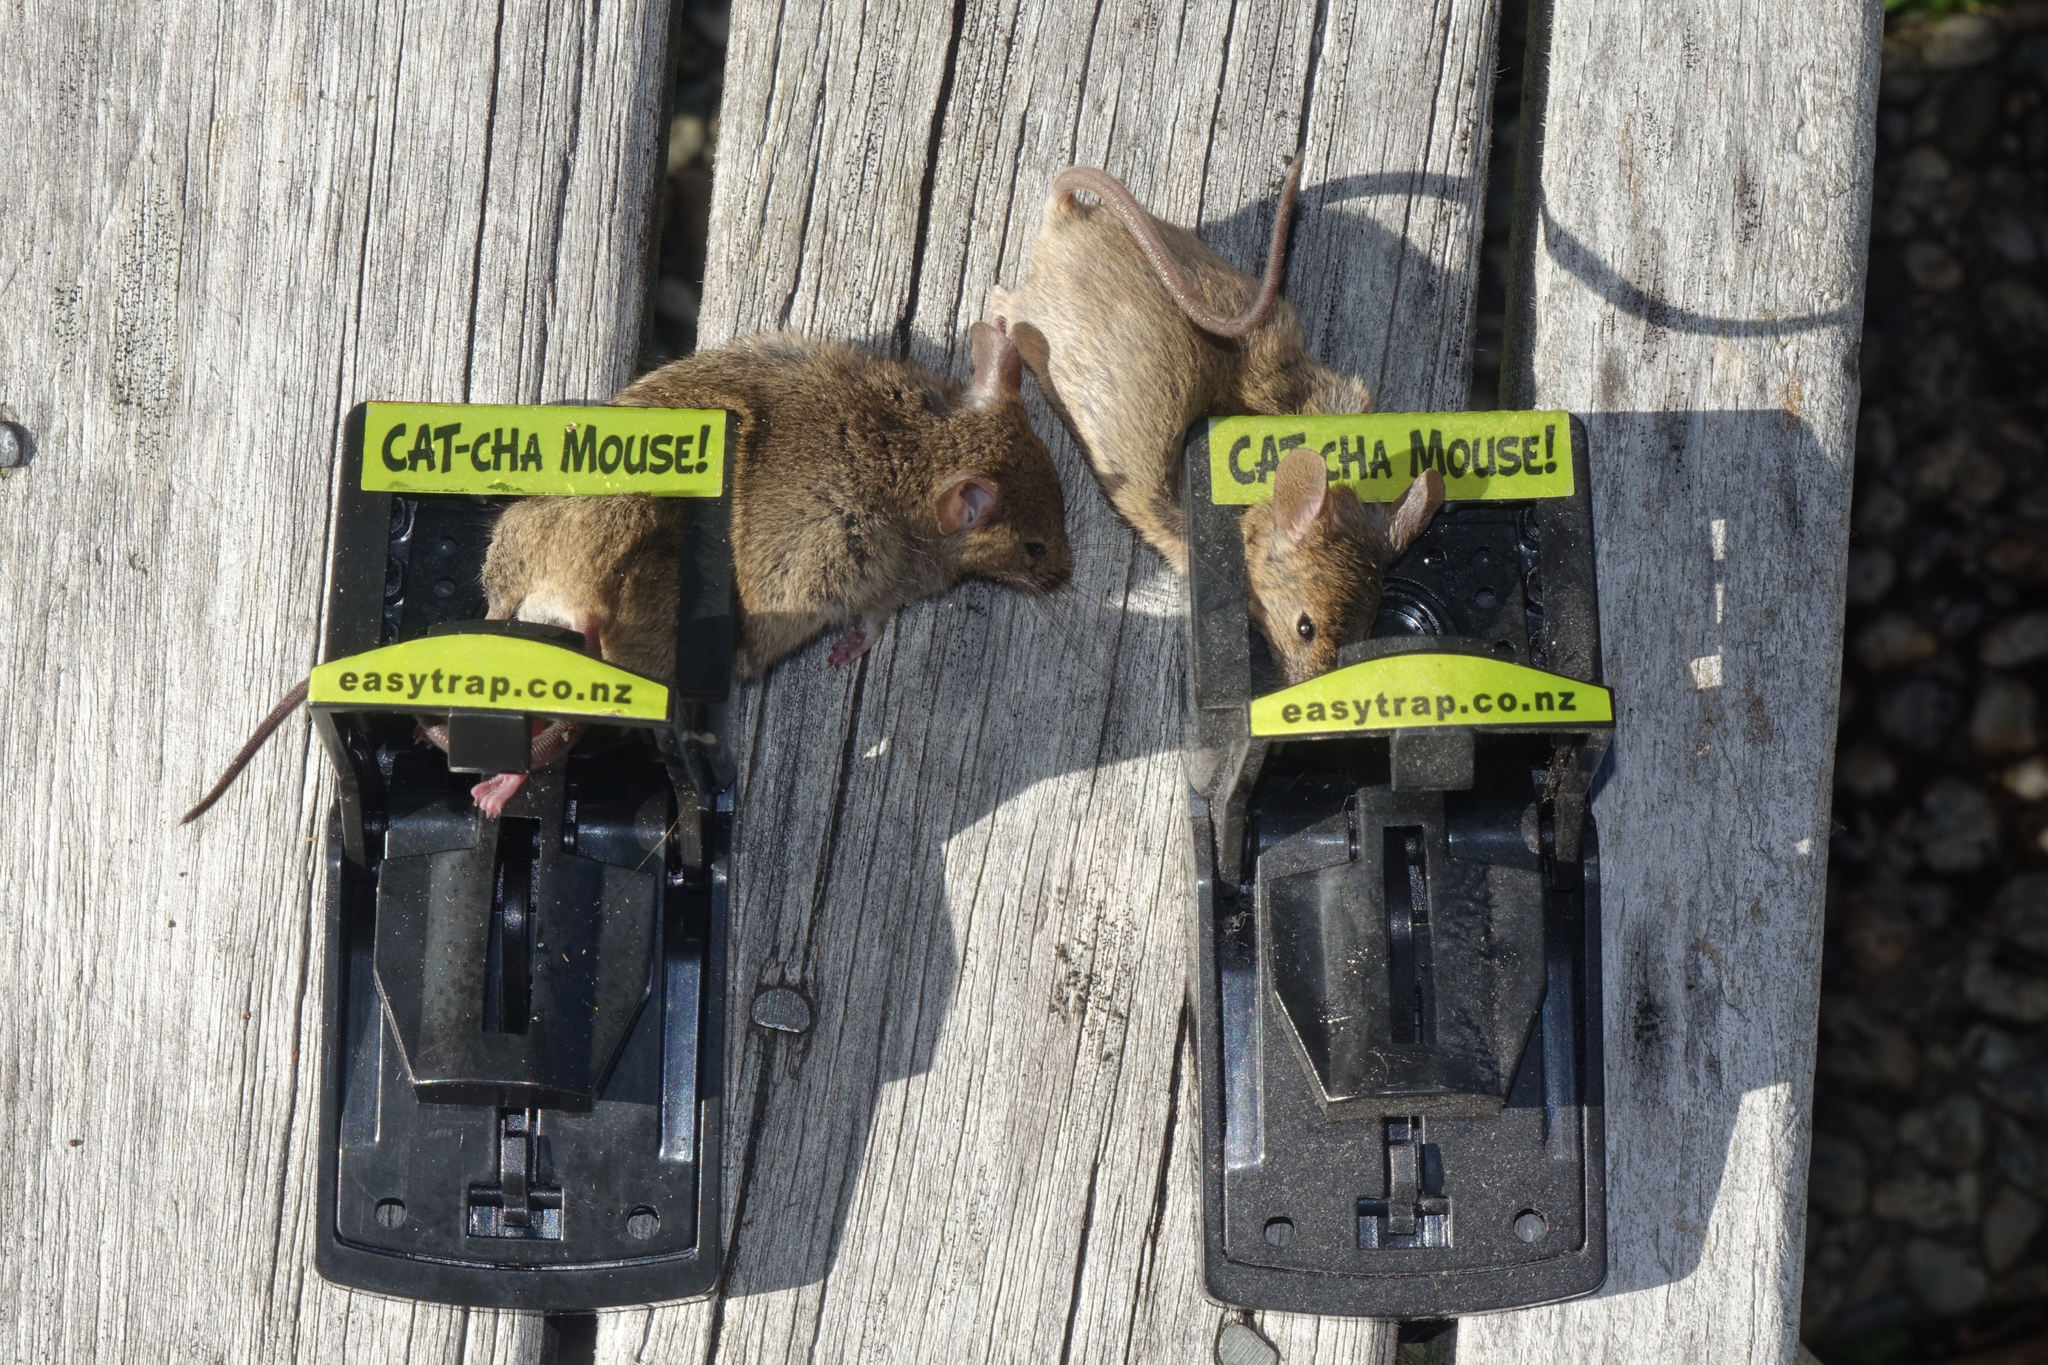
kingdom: Animalia
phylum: Chordata
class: Mammalia
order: Rodentia
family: Muridae
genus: Mus
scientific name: Mus musculus
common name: House mouse
